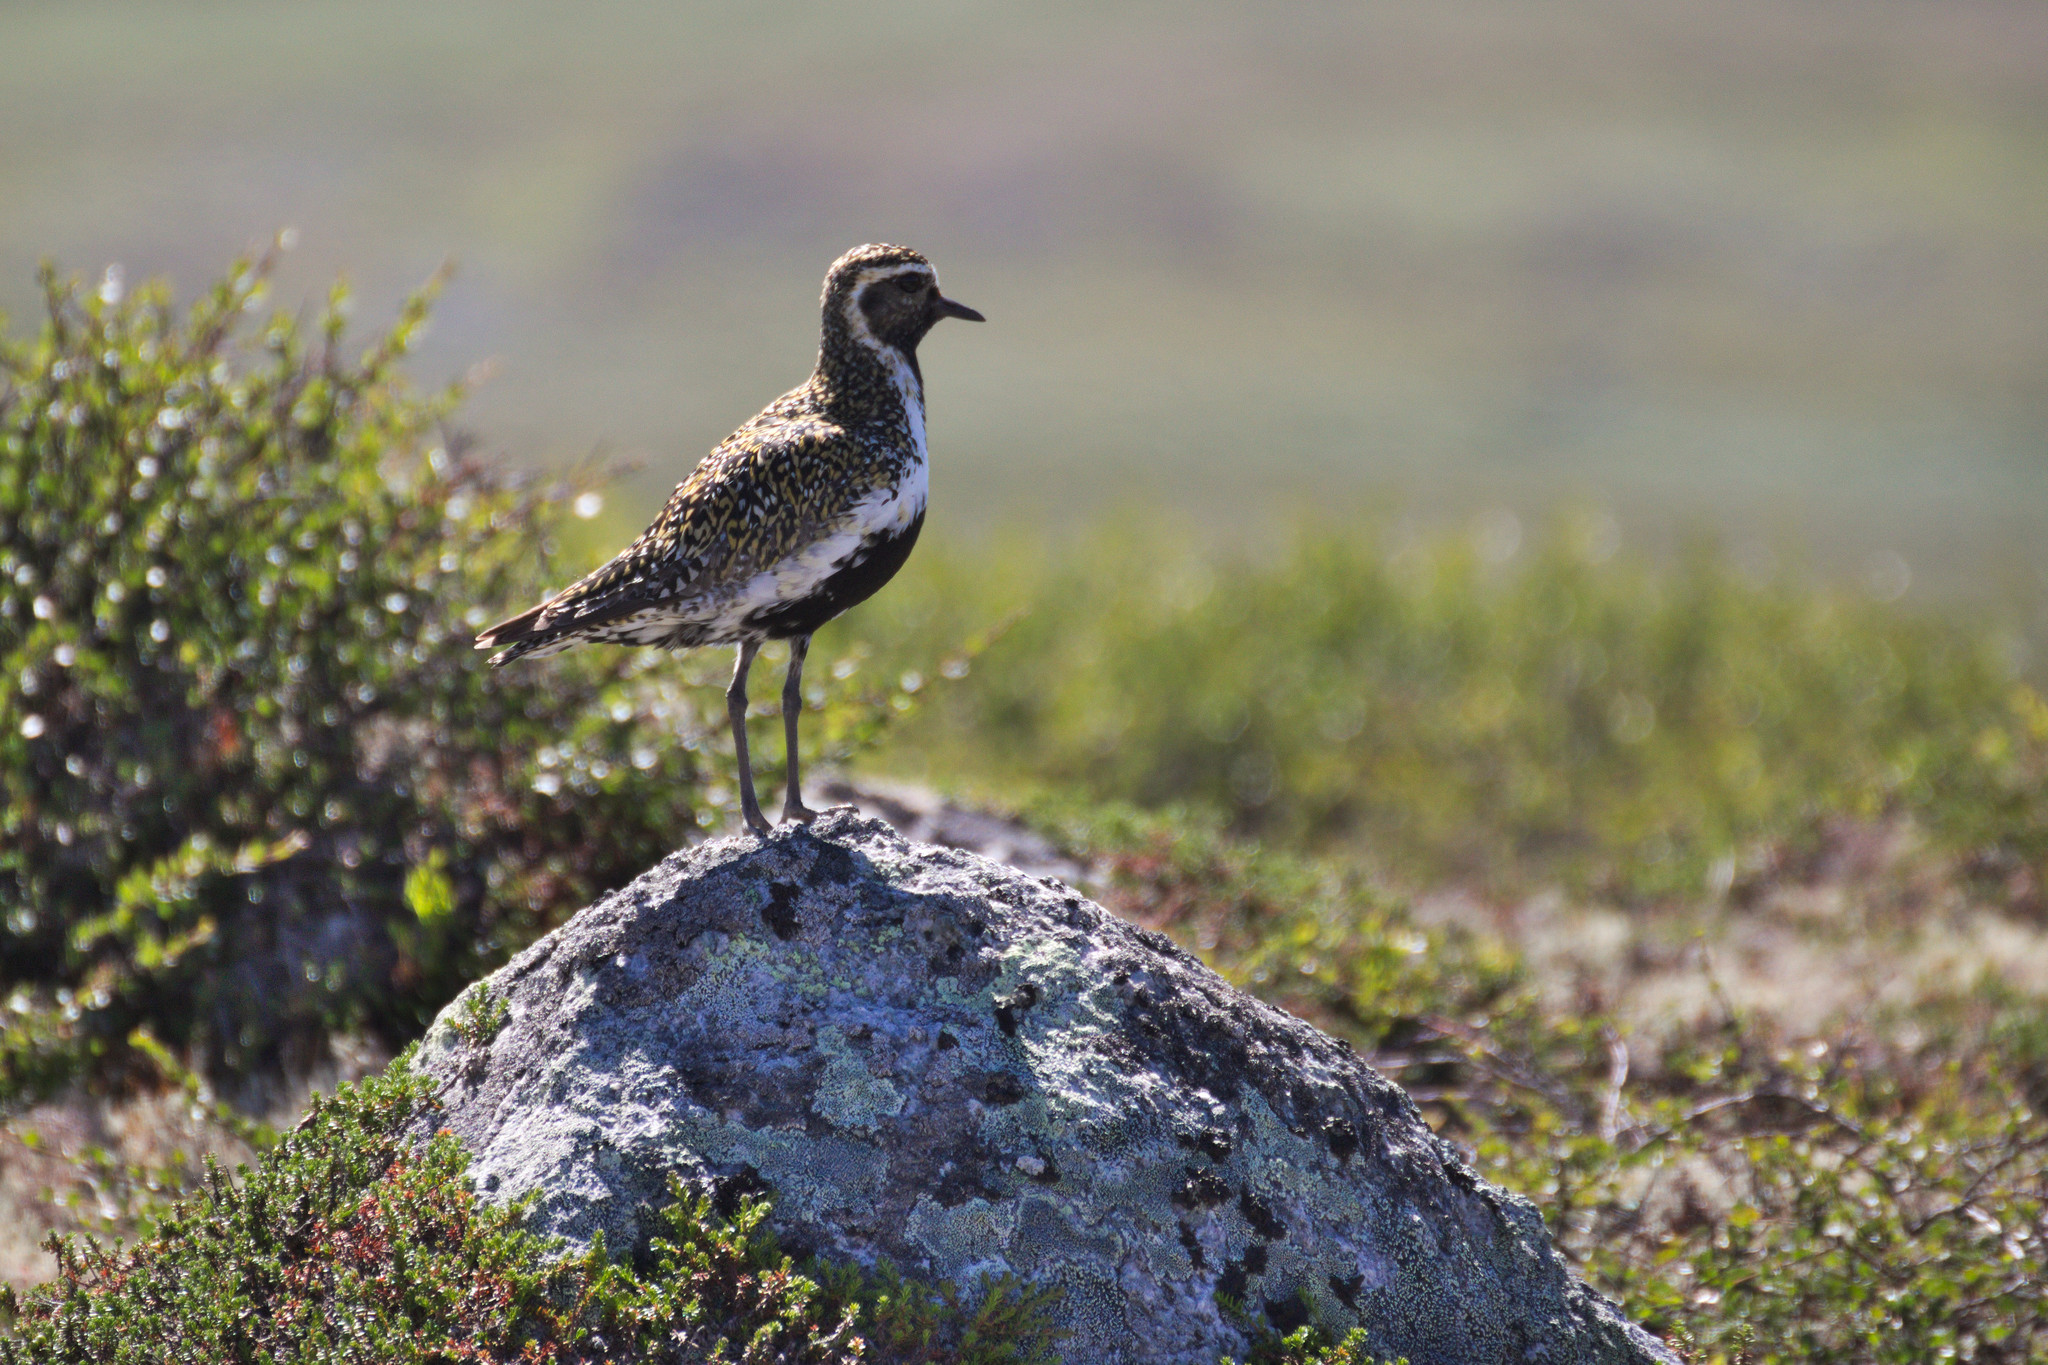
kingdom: Animalia
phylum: Chordata
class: Aves
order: Charadriiformes
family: Charadriidae
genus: Pluvialis
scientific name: Pluvialis apricaria
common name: European golden plover
